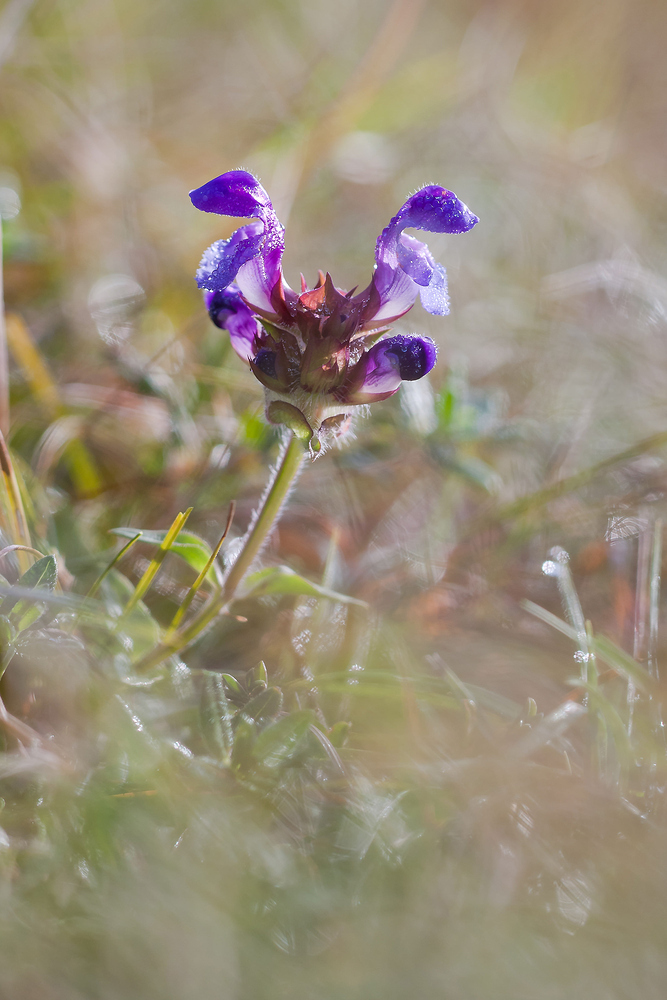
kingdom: Plantae
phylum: Tracheophyta
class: Magnoliopsida
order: Lamiales
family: Lamiaceae
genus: Prunella
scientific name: Prunella grandiflora
